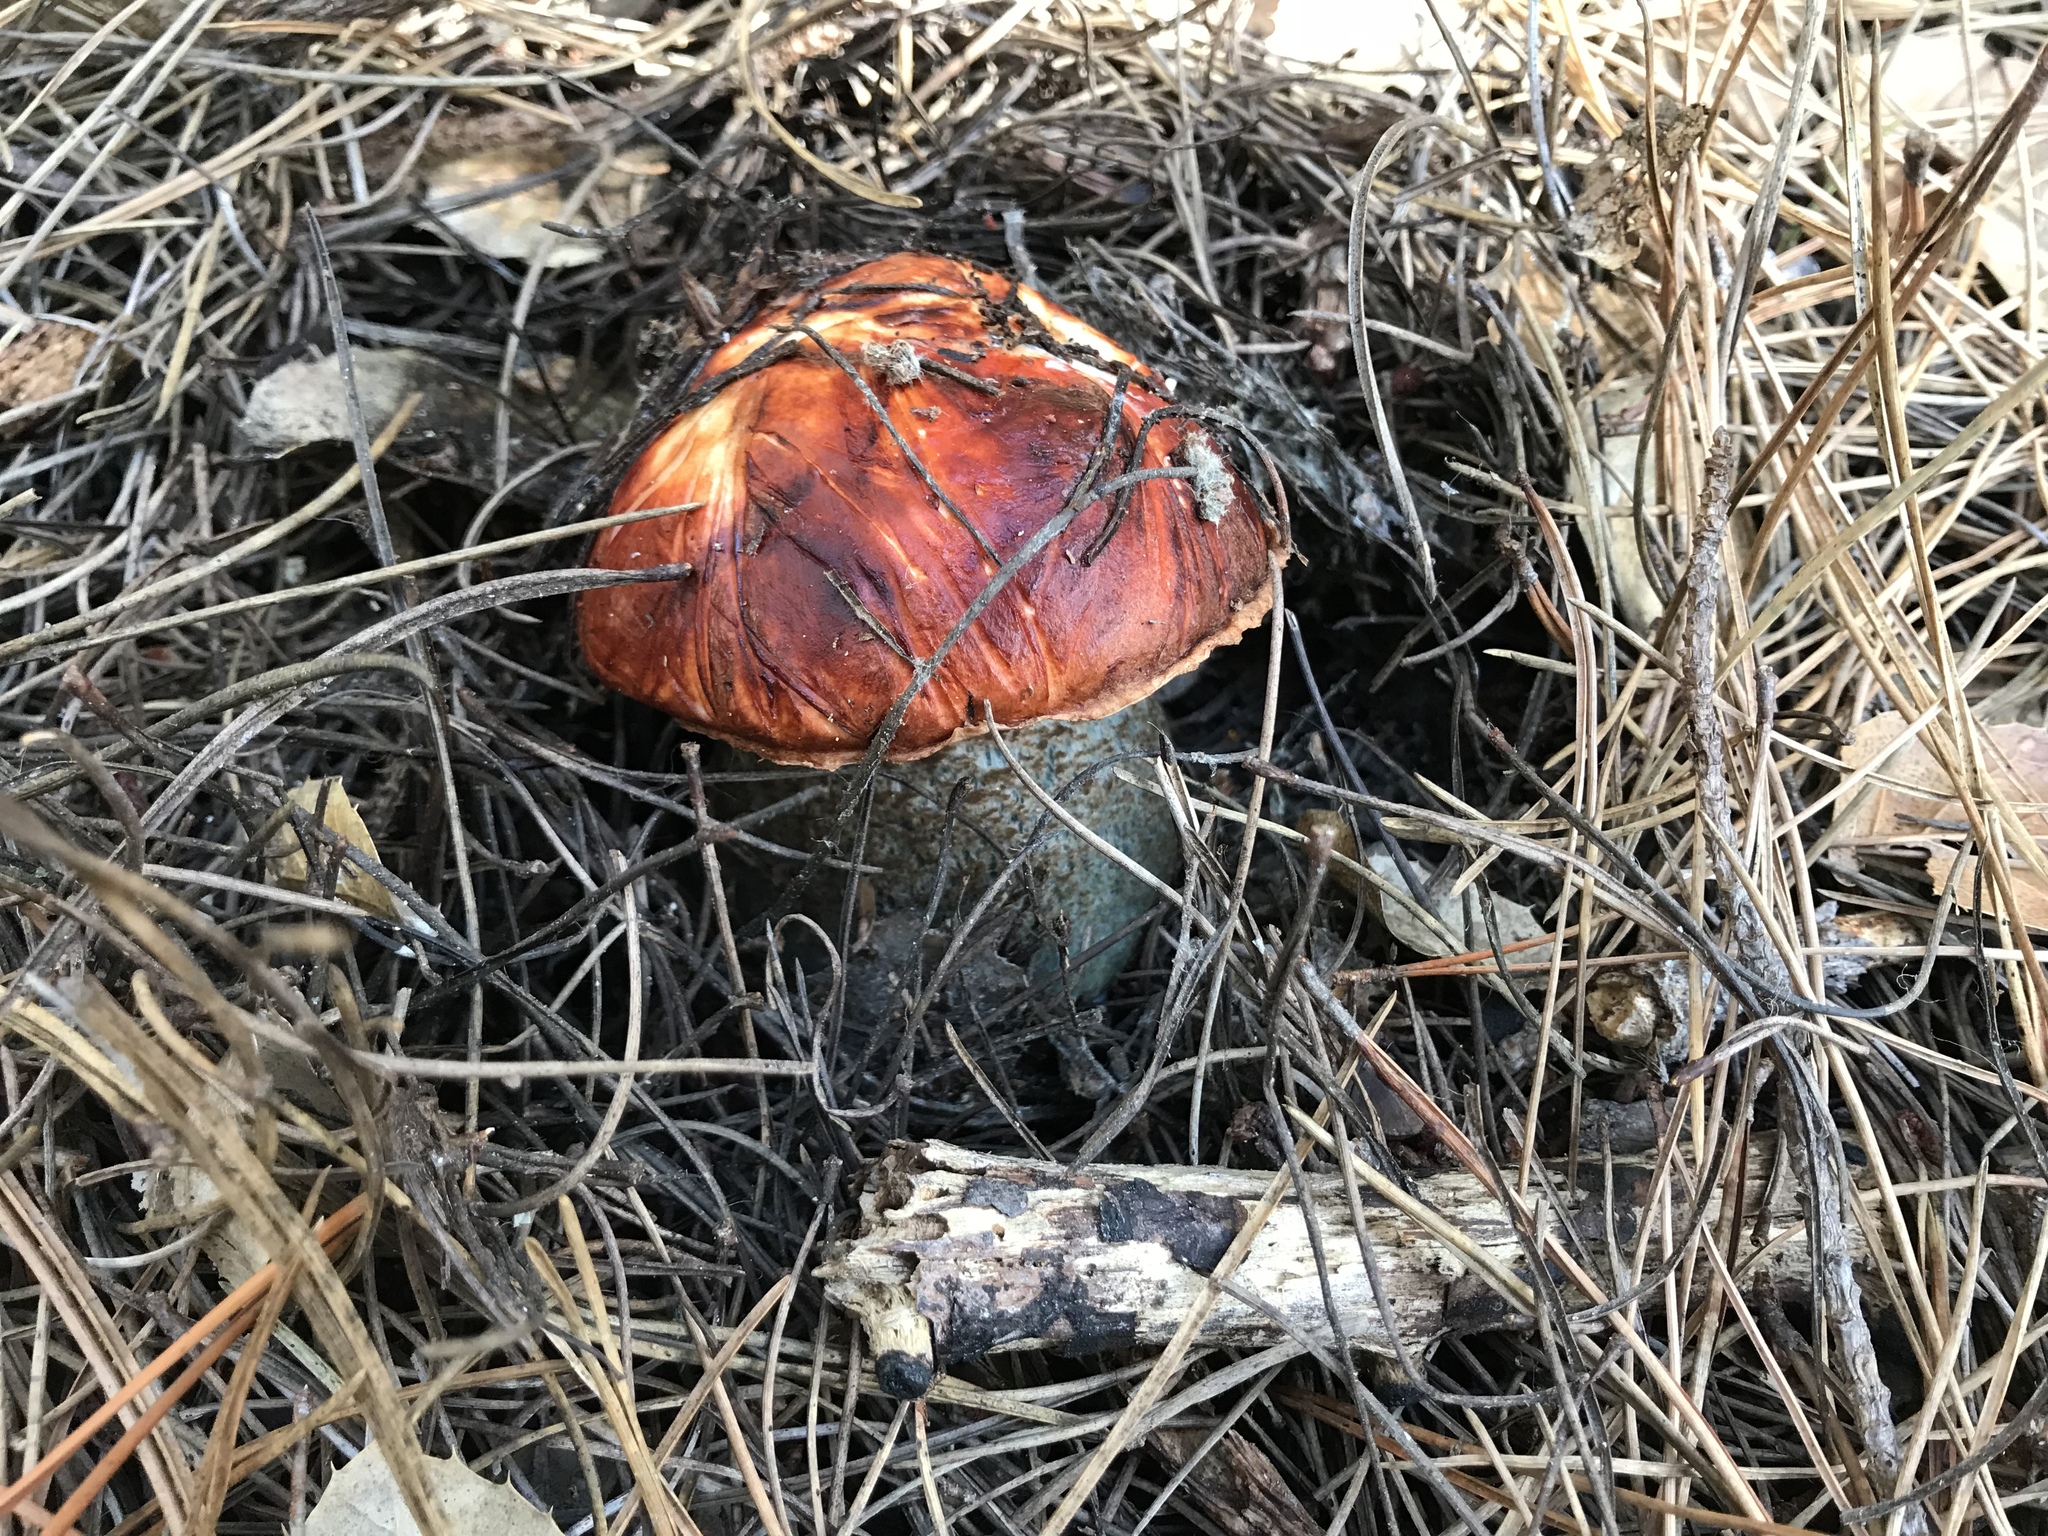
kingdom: Fungi
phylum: Basidiomycota
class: Agaricomycetes
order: Boletales
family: Boletaceae
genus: Leccinum
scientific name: Leccinum manzanitae
